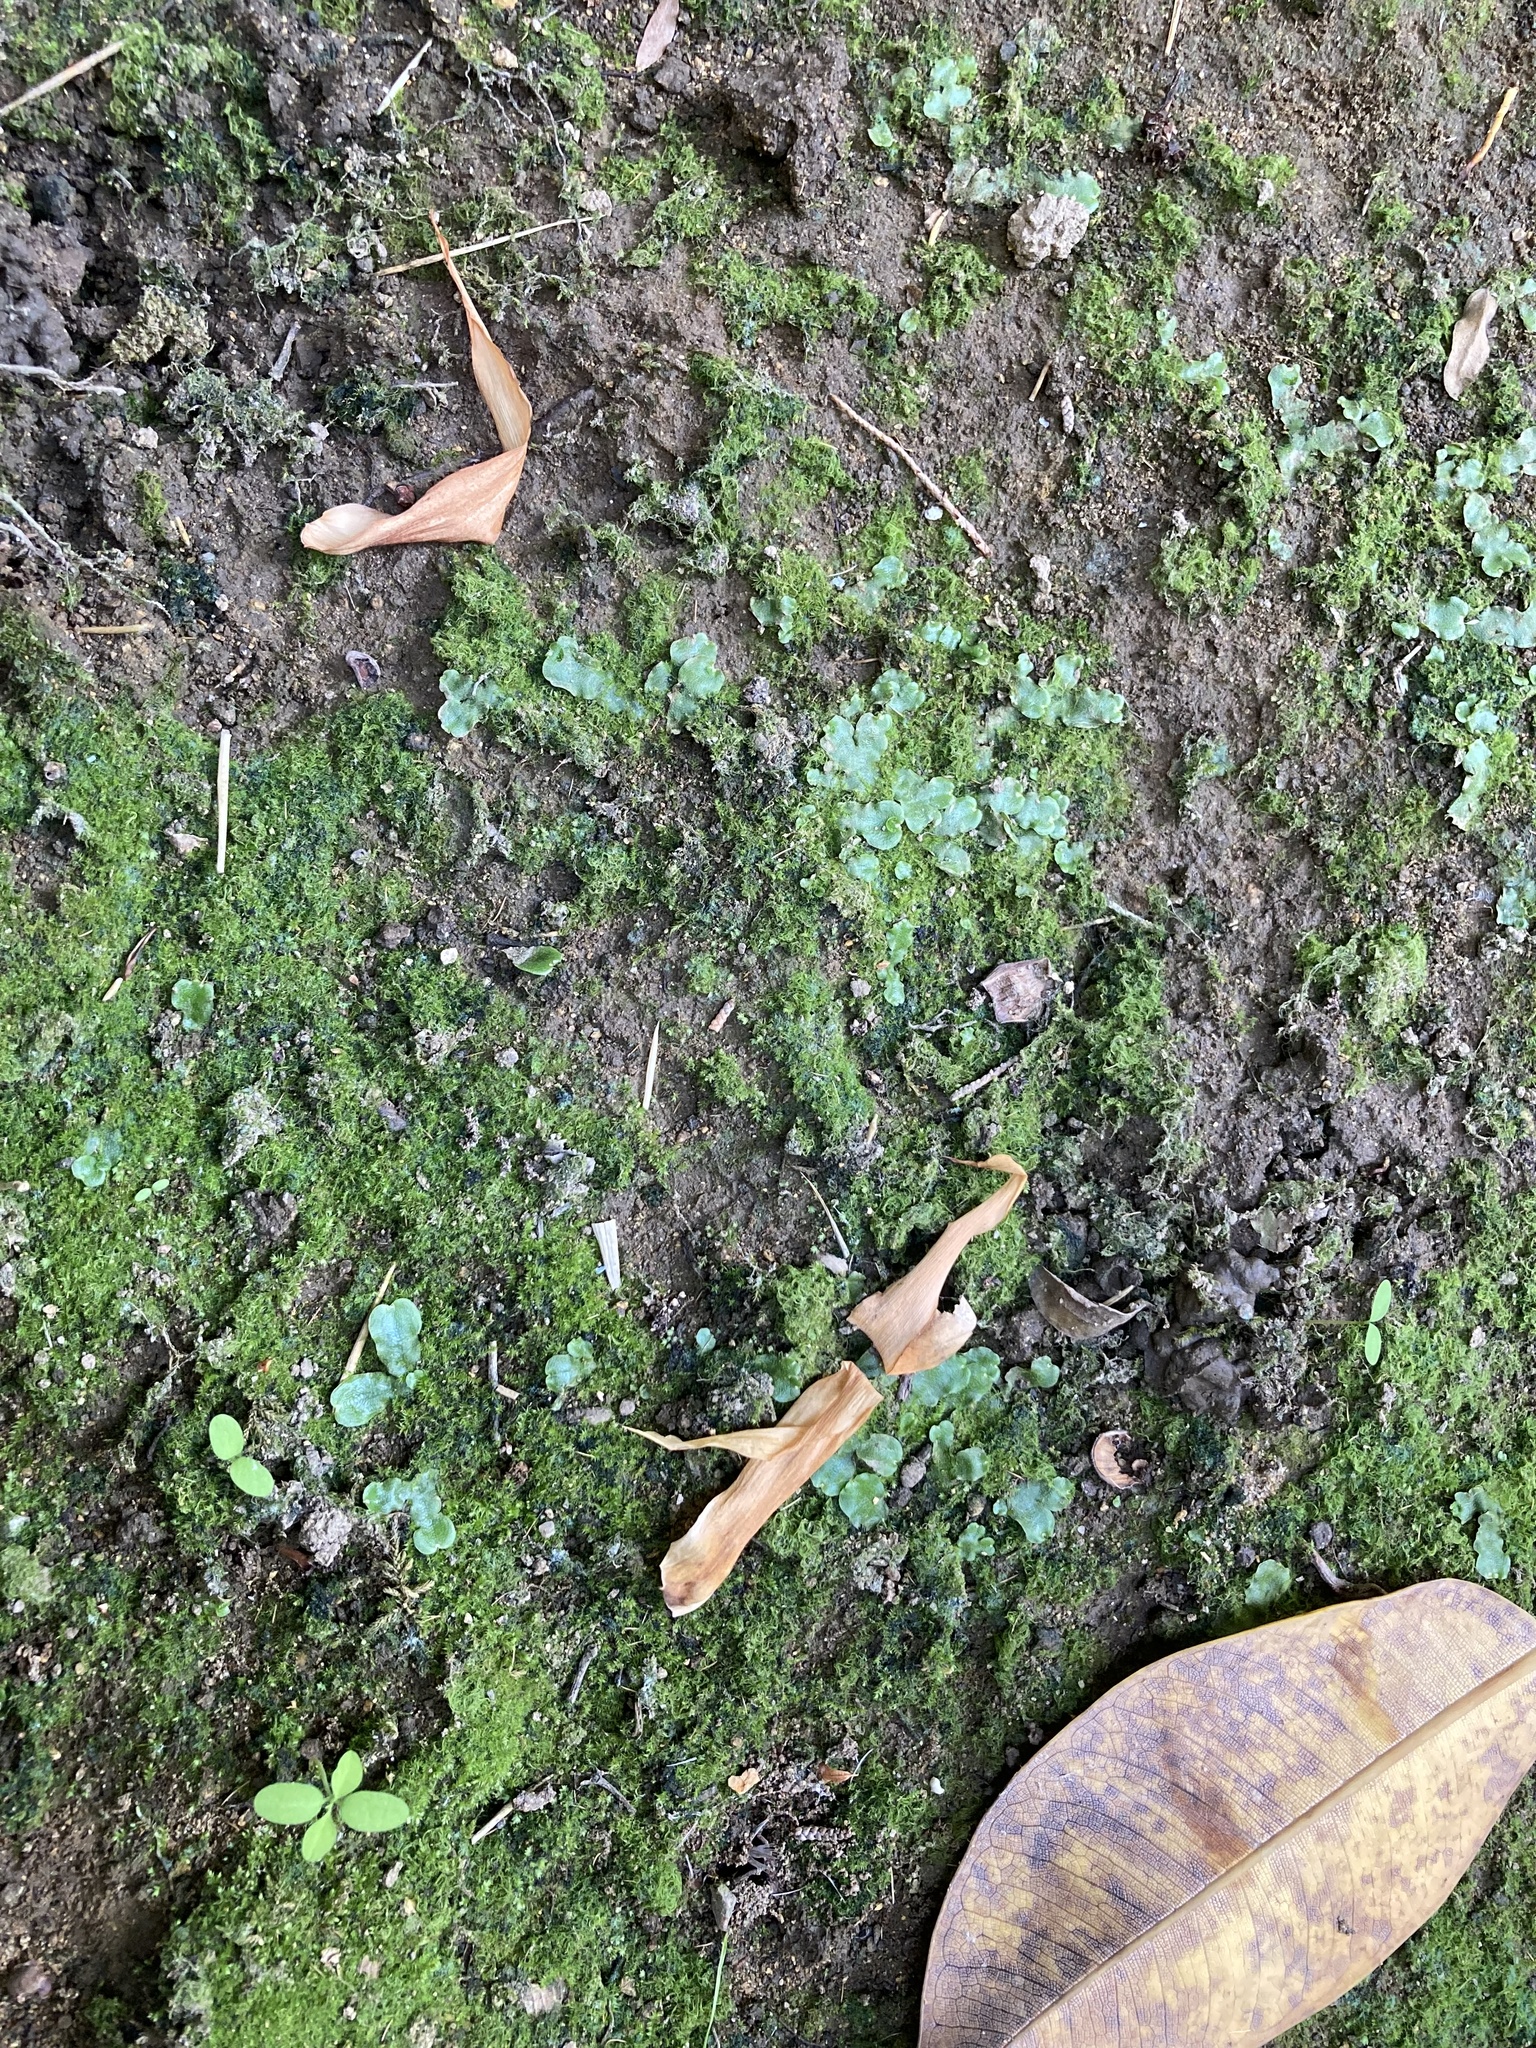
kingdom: Plantae
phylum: Marchantiophyta
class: Marchantiopsida
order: Lunulariales
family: Lunulariaceae
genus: Lunularia
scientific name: Lunularia cruciata
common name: Crescent-cup liverwort
